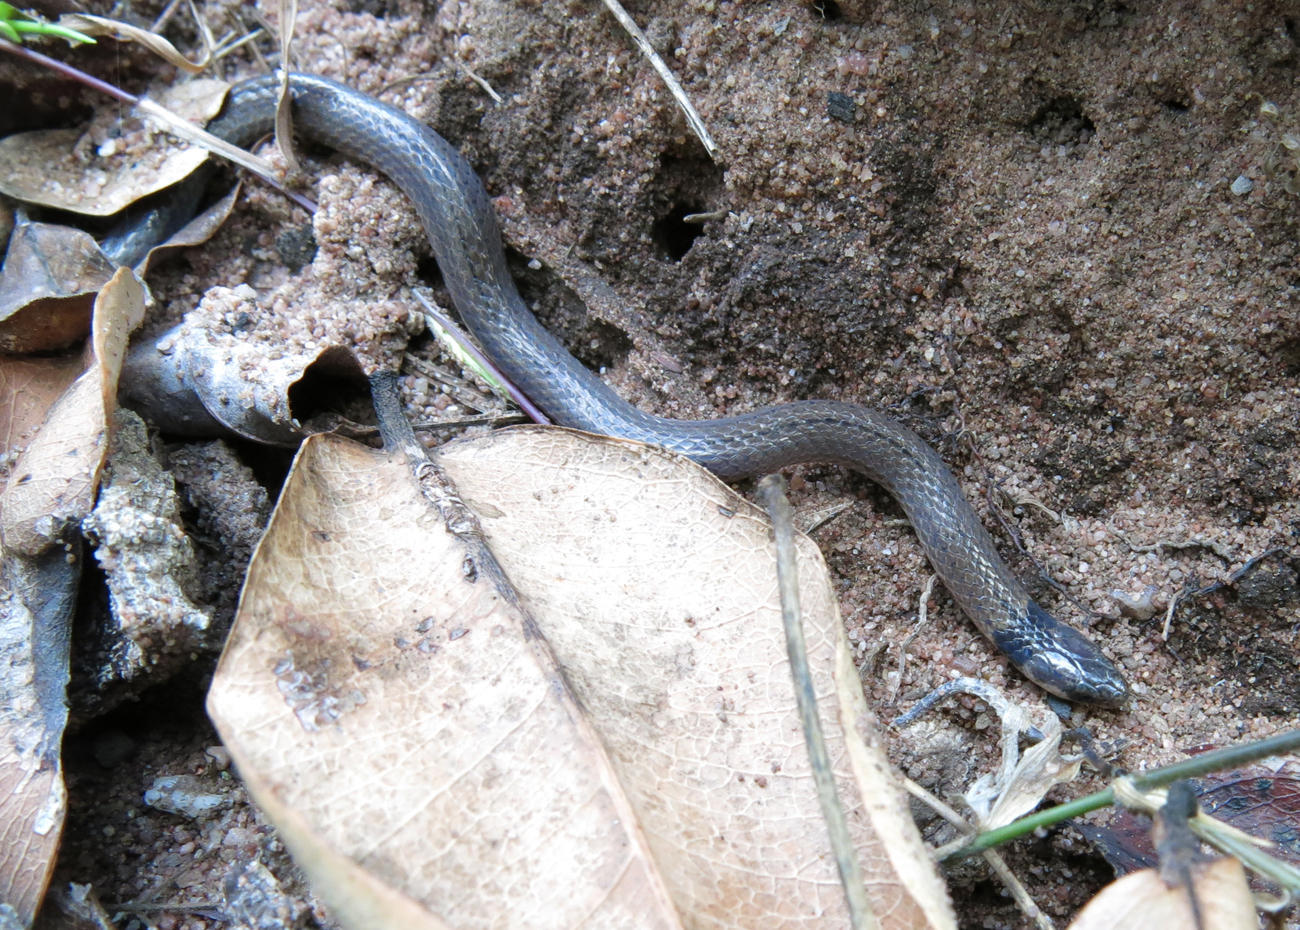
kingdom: Animalia
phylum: Chordata
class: Squamata
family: Atractaspididae
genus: Aparallactus
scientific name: Aparallactus capensis
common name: Cape centipede eater
